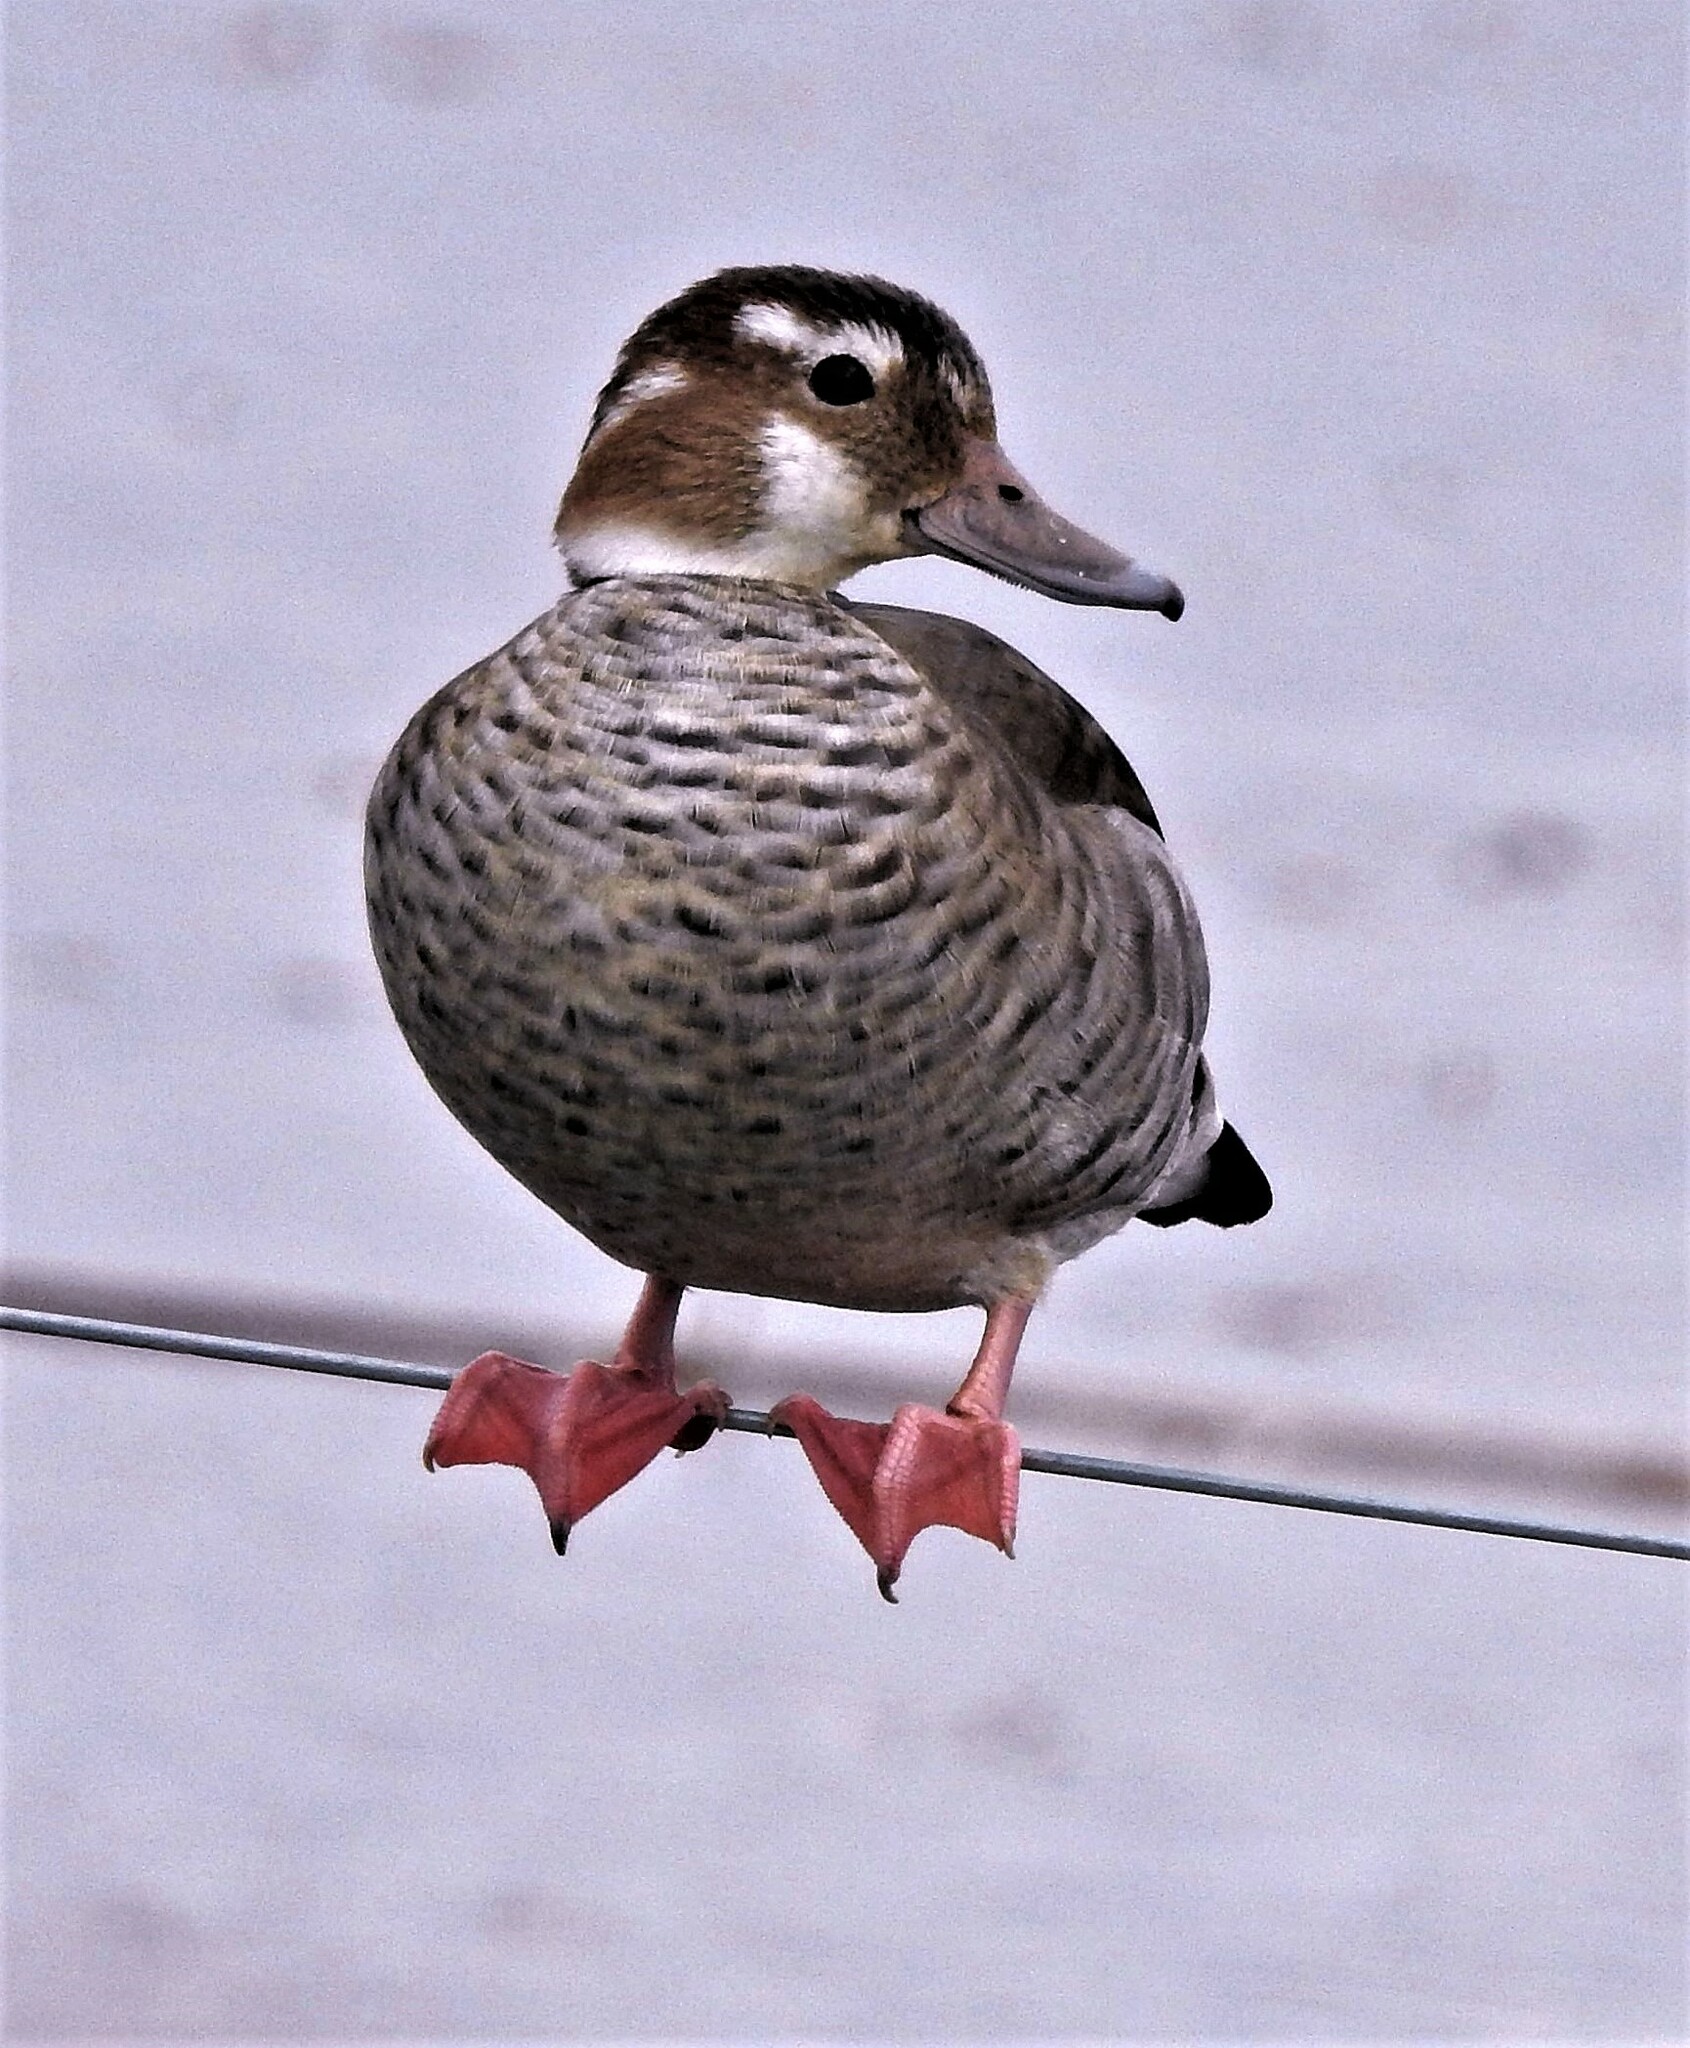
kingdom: Animalia
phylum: Chordata
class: Aves
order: Anseriformes
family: Anatidae
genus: Callonetta
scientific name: Callonetta leucophrys
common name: Ringed teal
